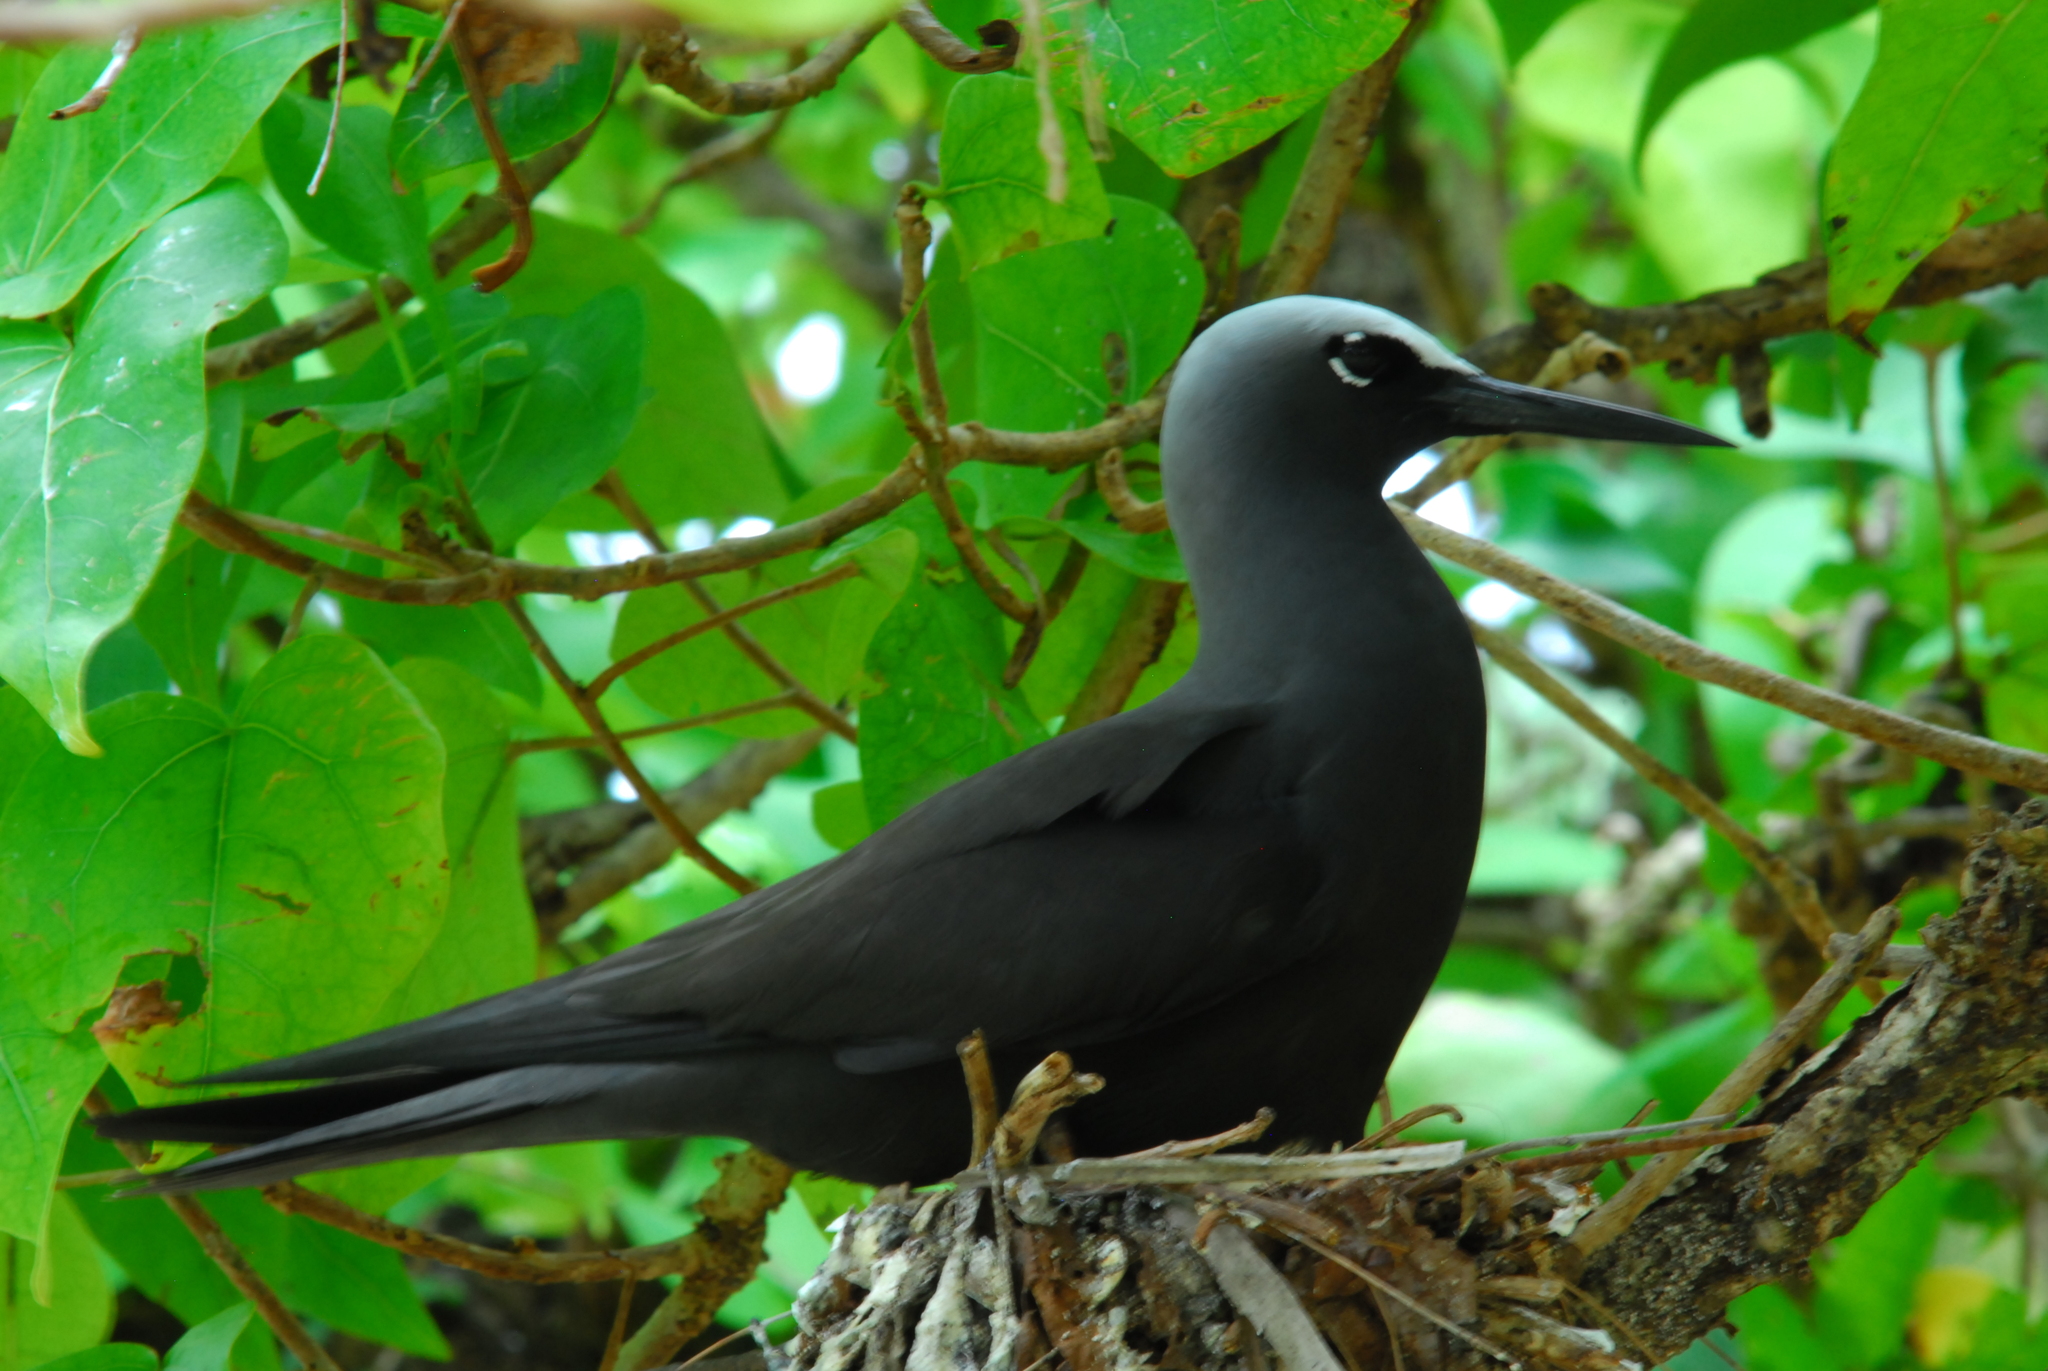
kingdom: Animalia
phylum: Chordata
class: Aves
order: Charadriiformes
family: Laridae
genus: Anous
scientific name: Anous minutus
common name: Black noddy
